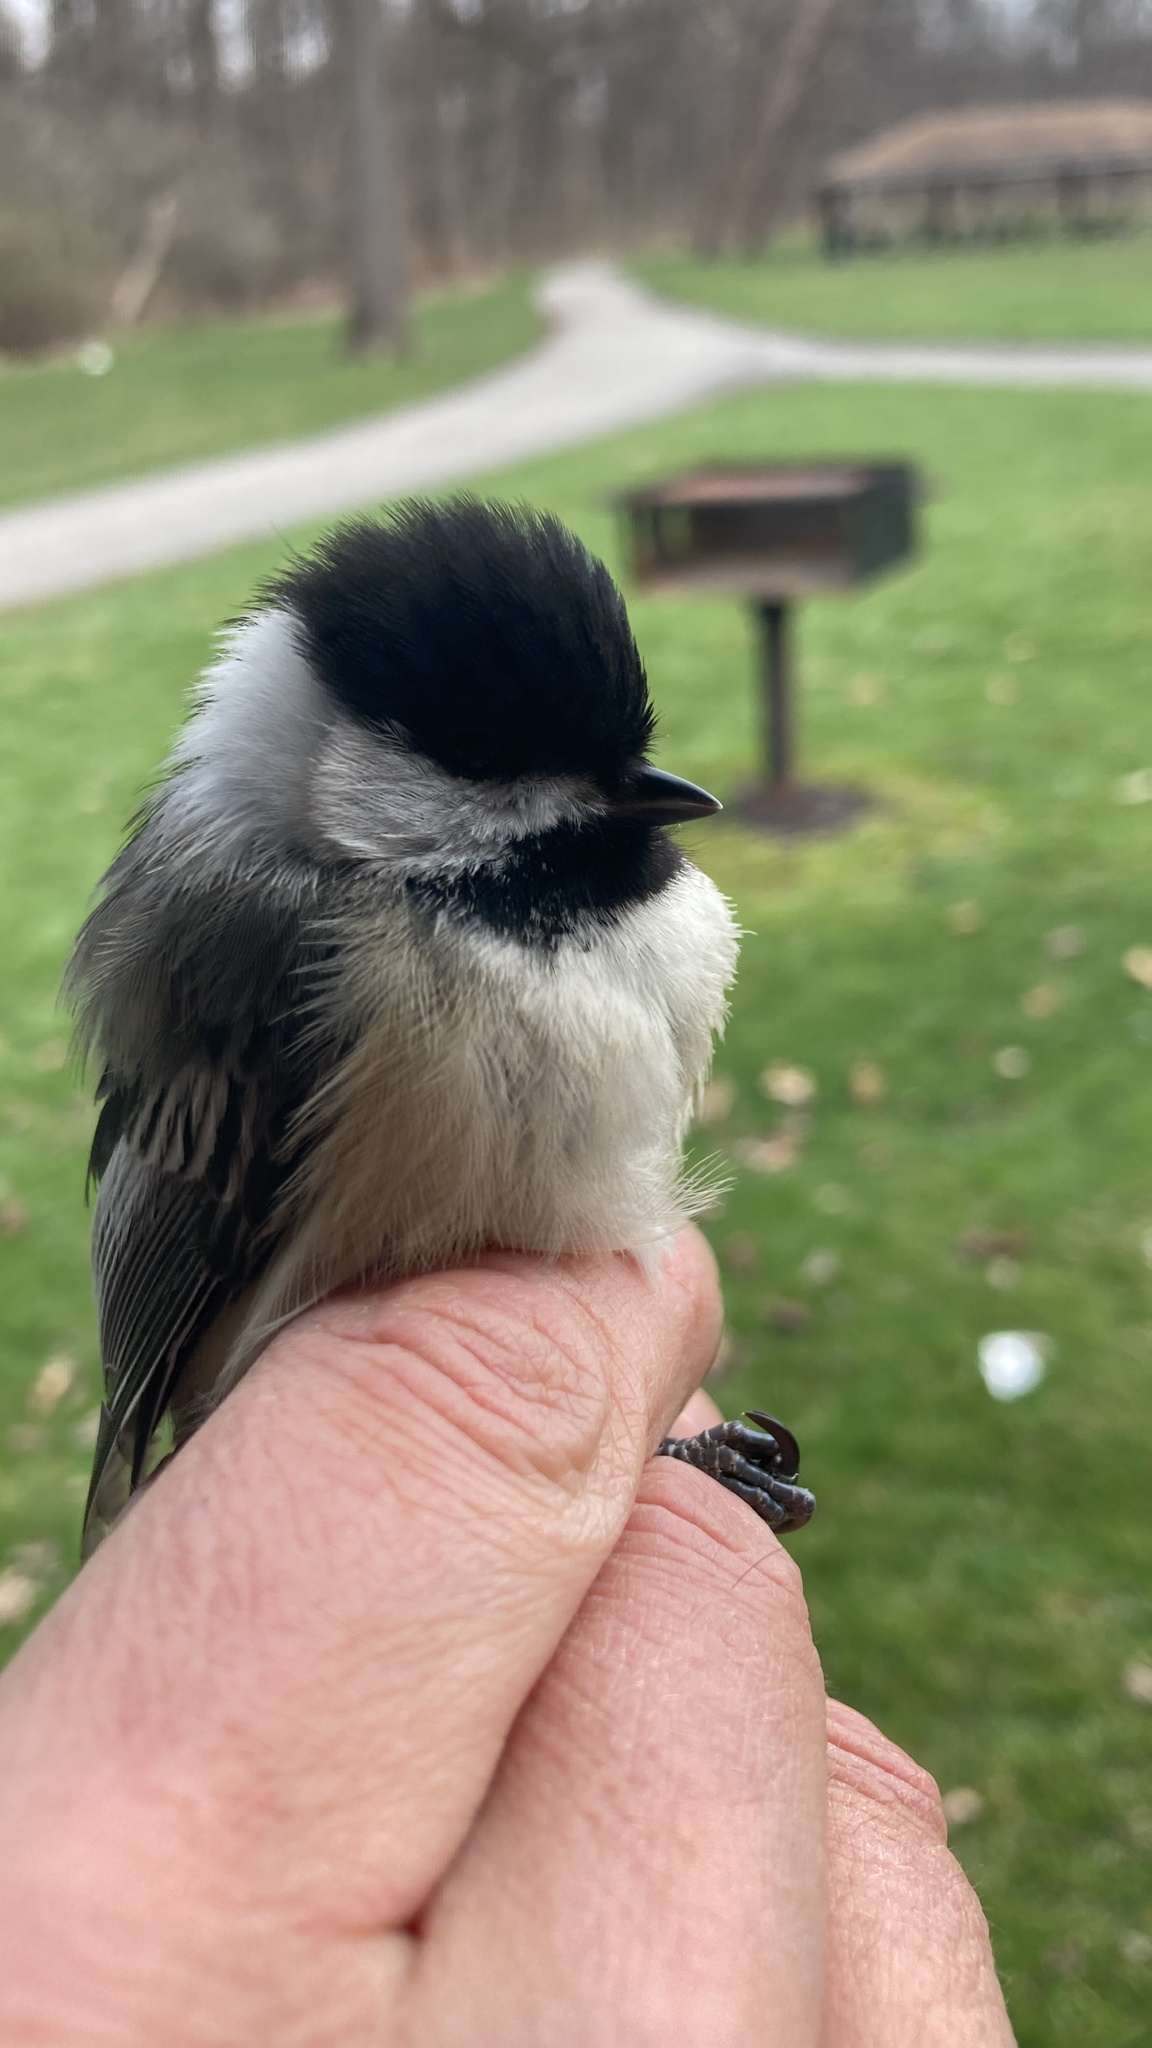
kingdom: Animalia
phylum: Chordata
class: Aves
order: Passeriformes
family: Paridae
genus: Poecile
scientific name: Poecile atricapillus
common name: Black-capped chickadee
